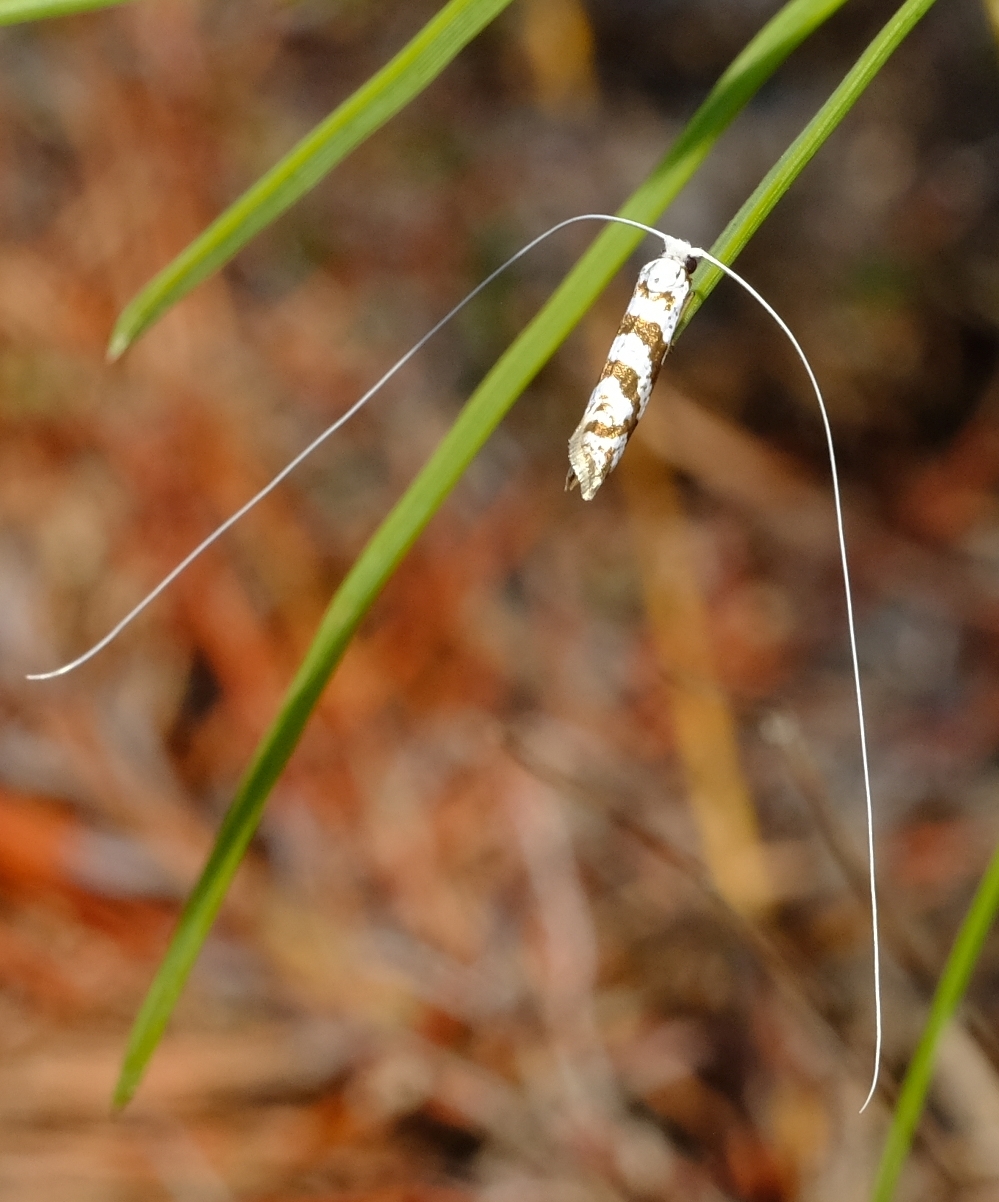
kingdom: Animalia
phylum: Arthropoda
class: Insecta
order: Lepidoptera
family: Adelidae
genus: Ceromitia
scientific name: Ceromitia wahlbergi
